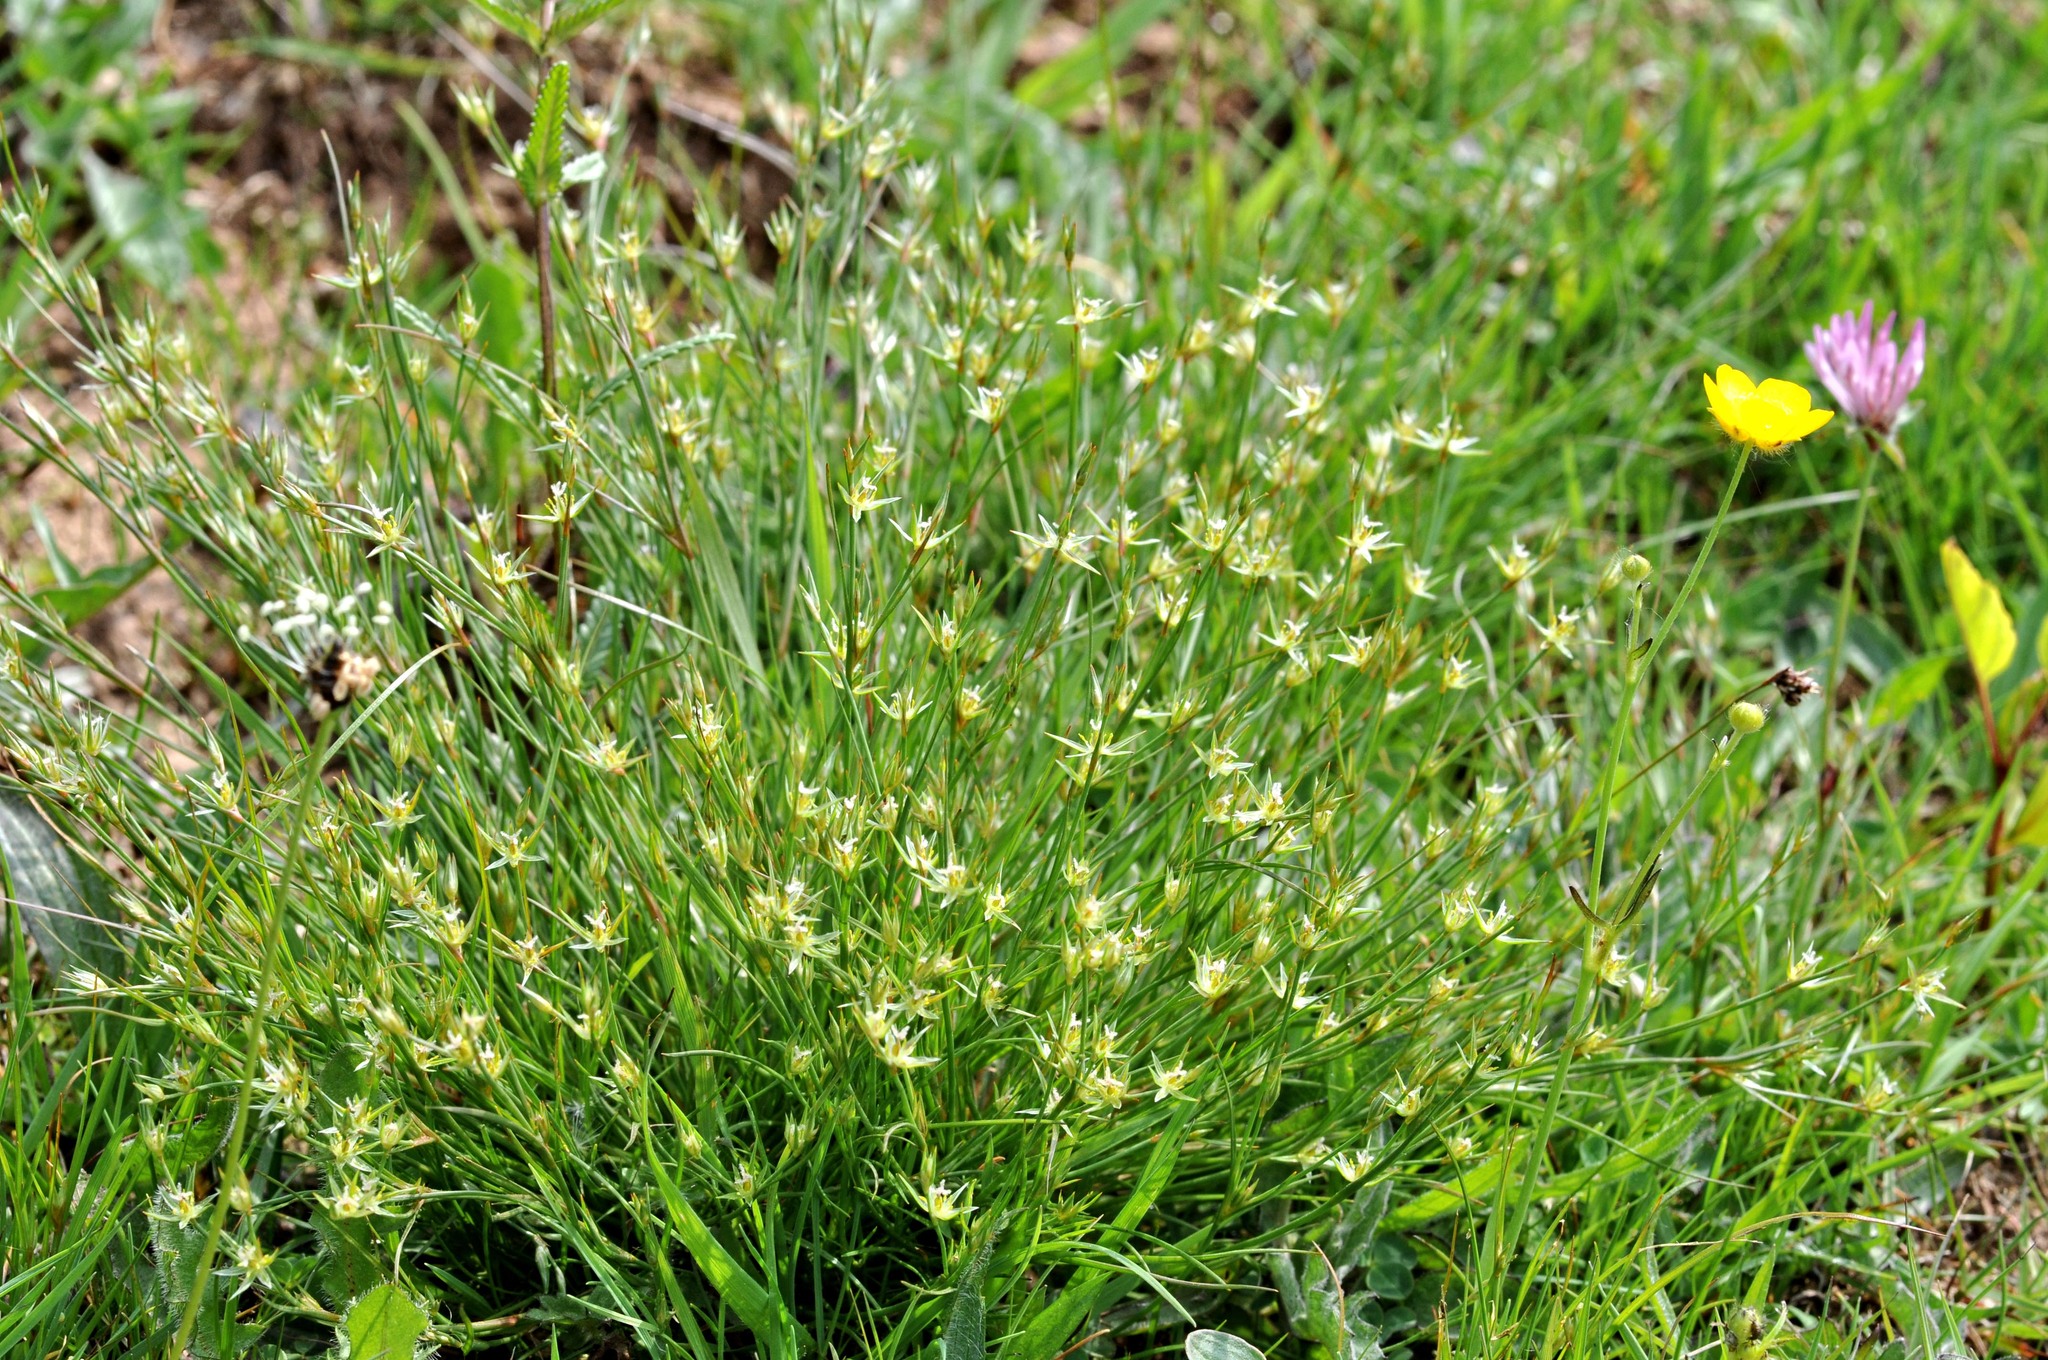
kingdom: Plantae
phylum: Tracheophyta
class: Liliopsida
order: Poales
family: Juncaceae
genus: Juncus
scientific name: Juncus bufonius
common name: Toad rush
